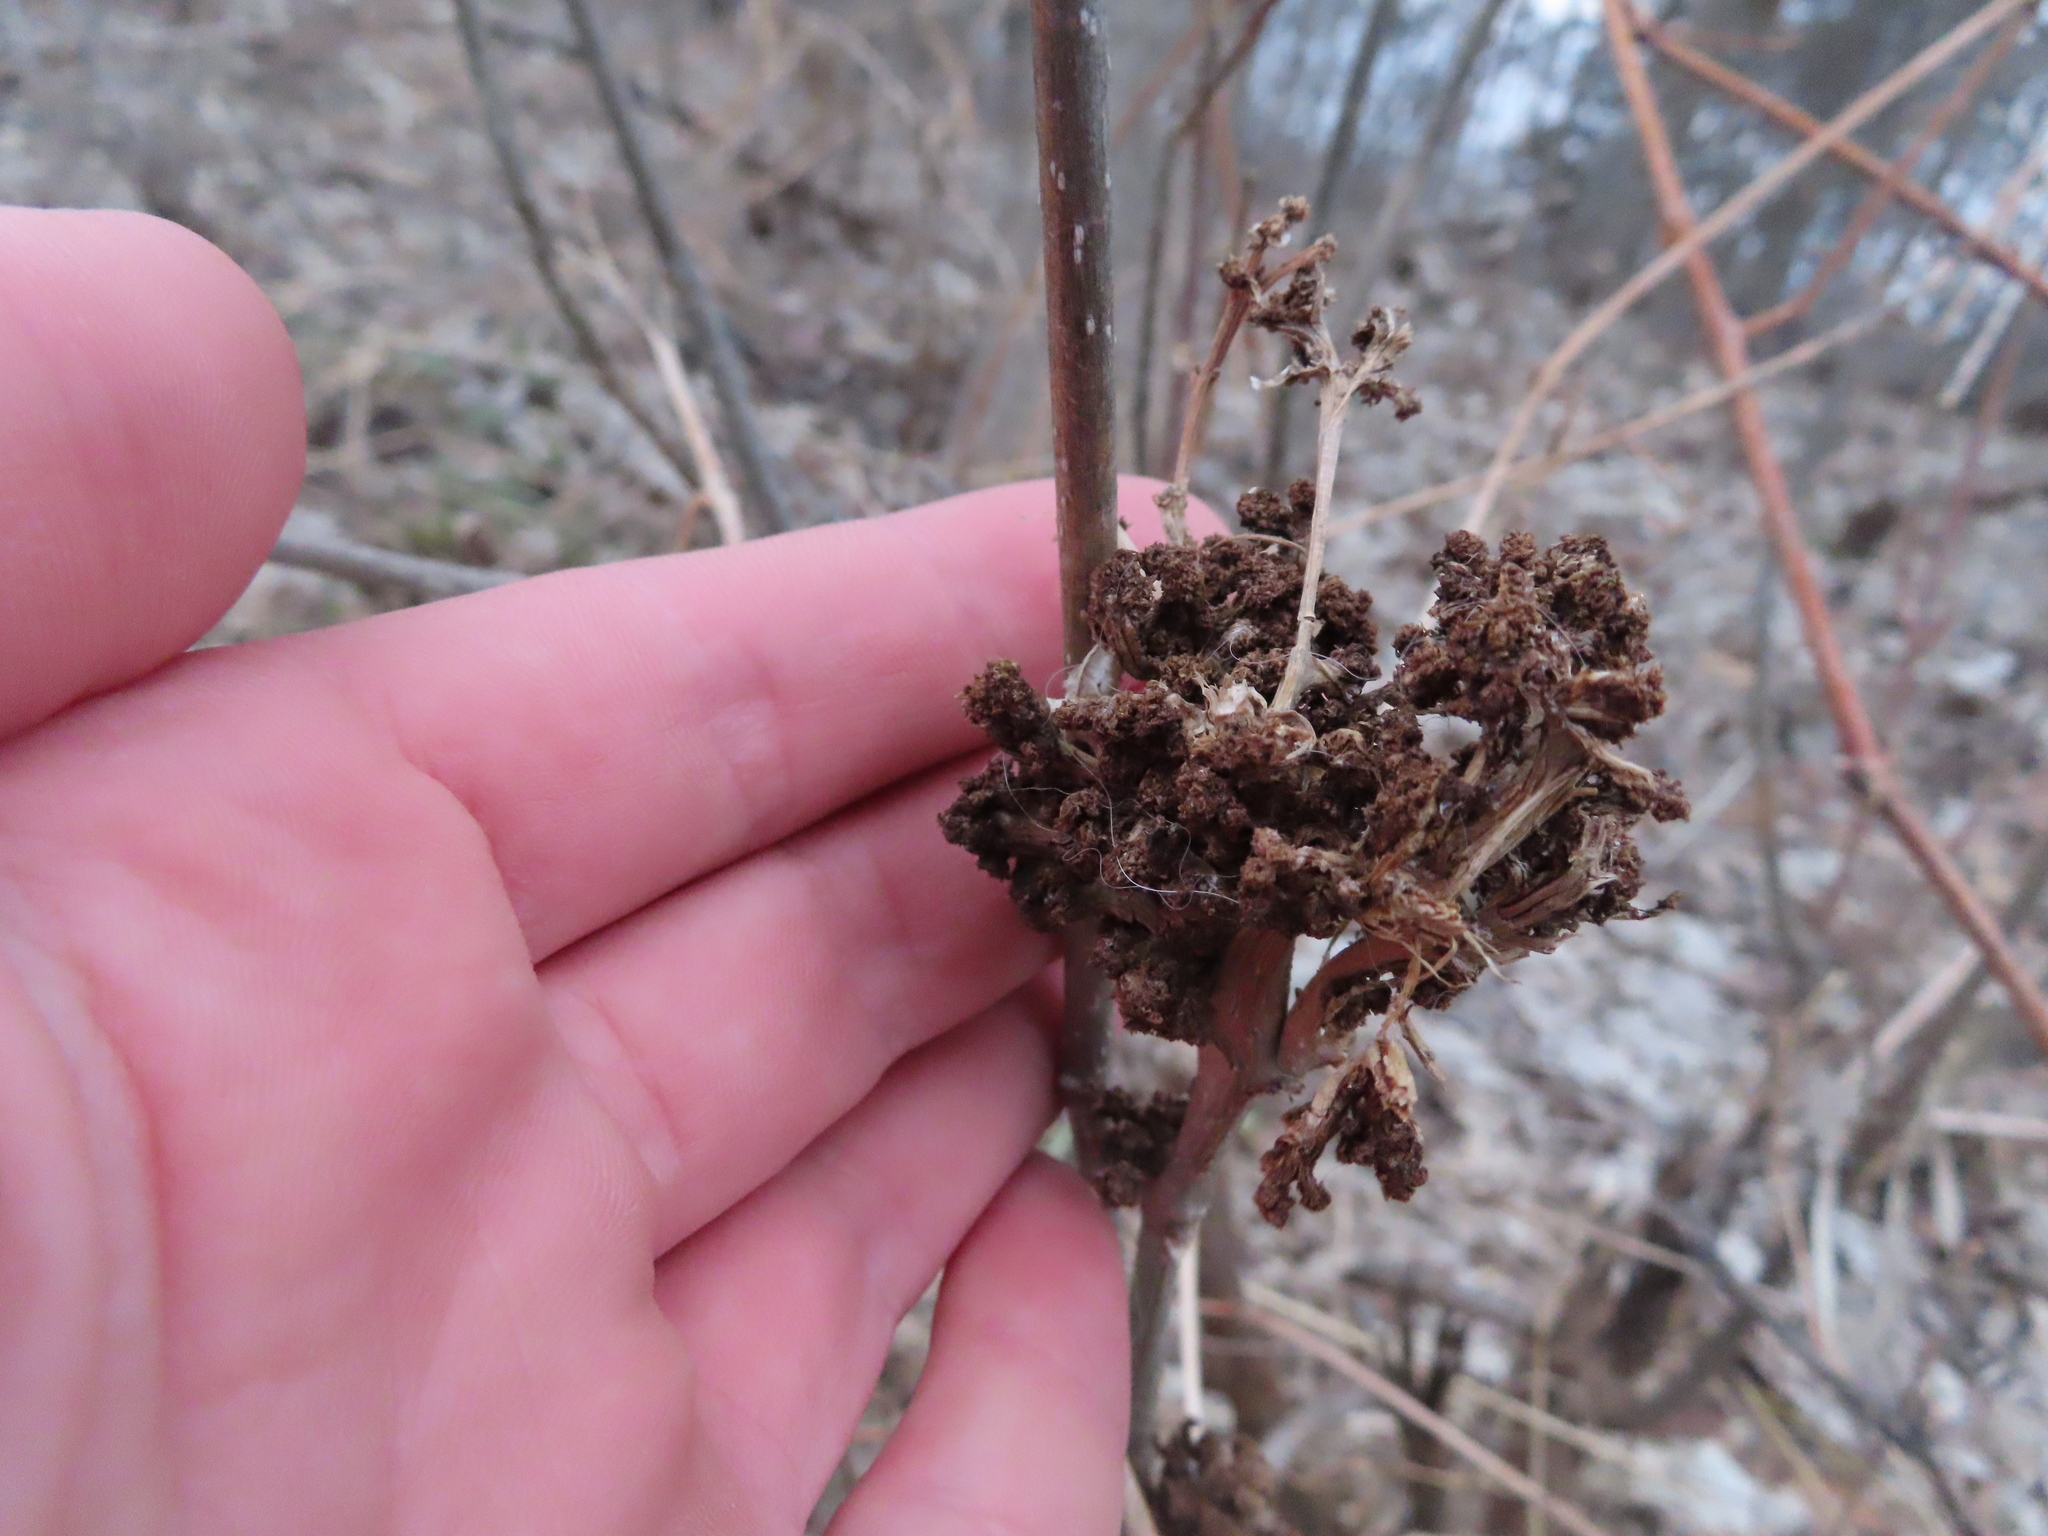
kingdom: Animalia
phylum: Arthropoda
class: Arachnida
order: Trombidiformes
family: Eriophyidae
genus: Aceria
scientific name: Aceria fraxiniflora
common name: Ash flower gall mite
